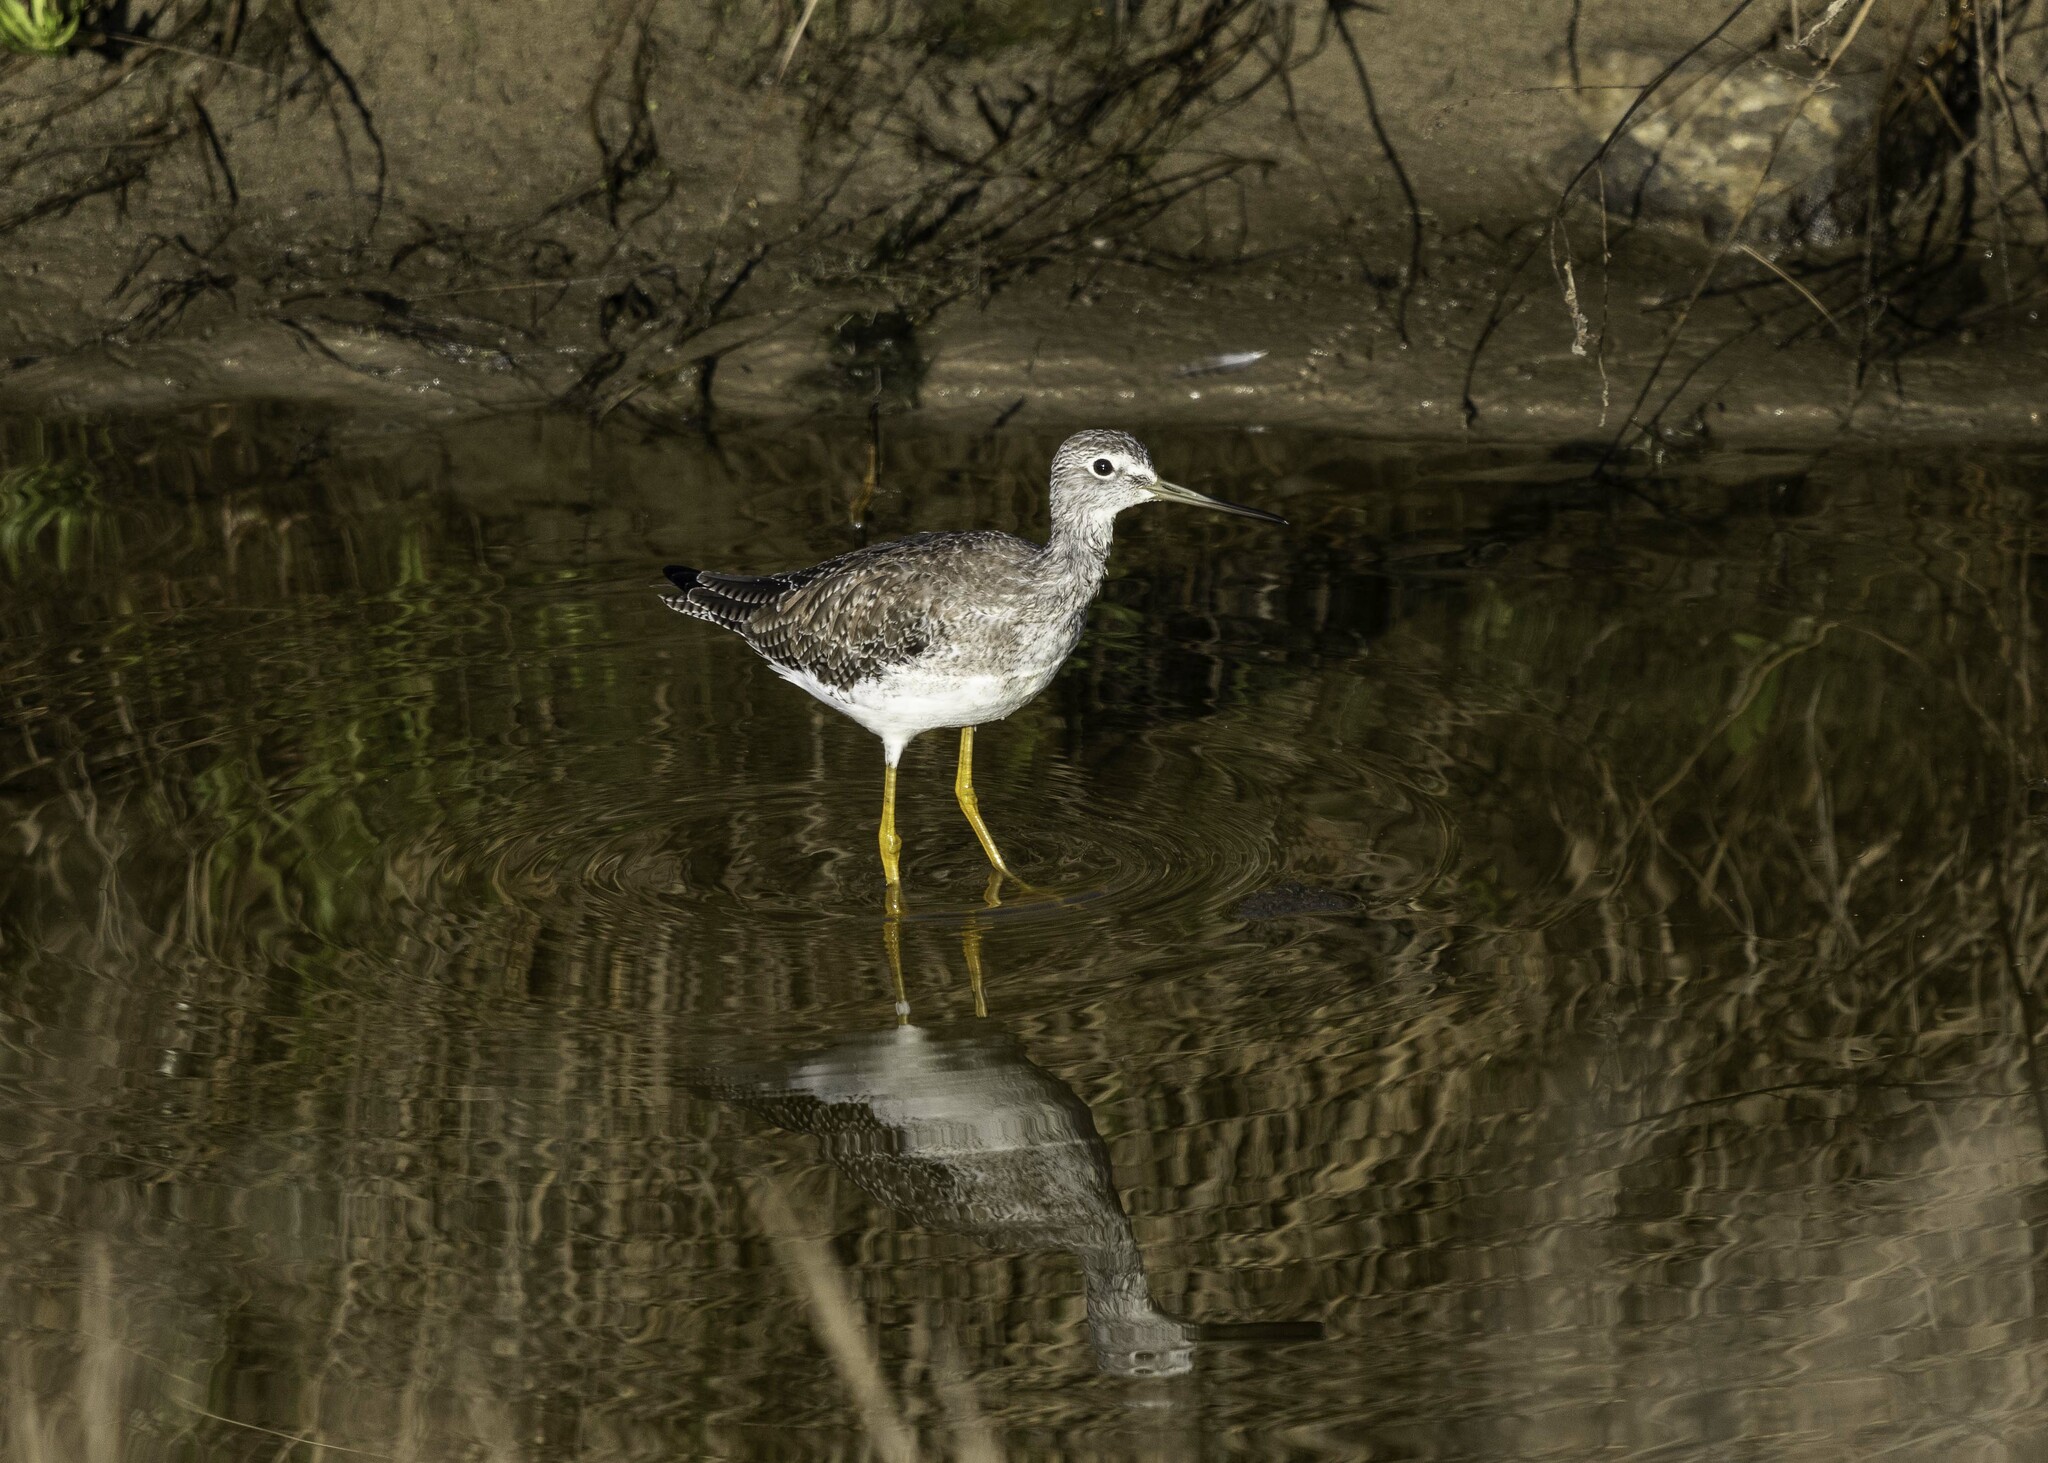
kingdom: Animalia
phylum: Chordata
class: Aves
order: Charadriiformes
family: Scolopacidae
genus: Tringa
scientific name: Tringa melanoleuca
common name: Greater yellowlegs
